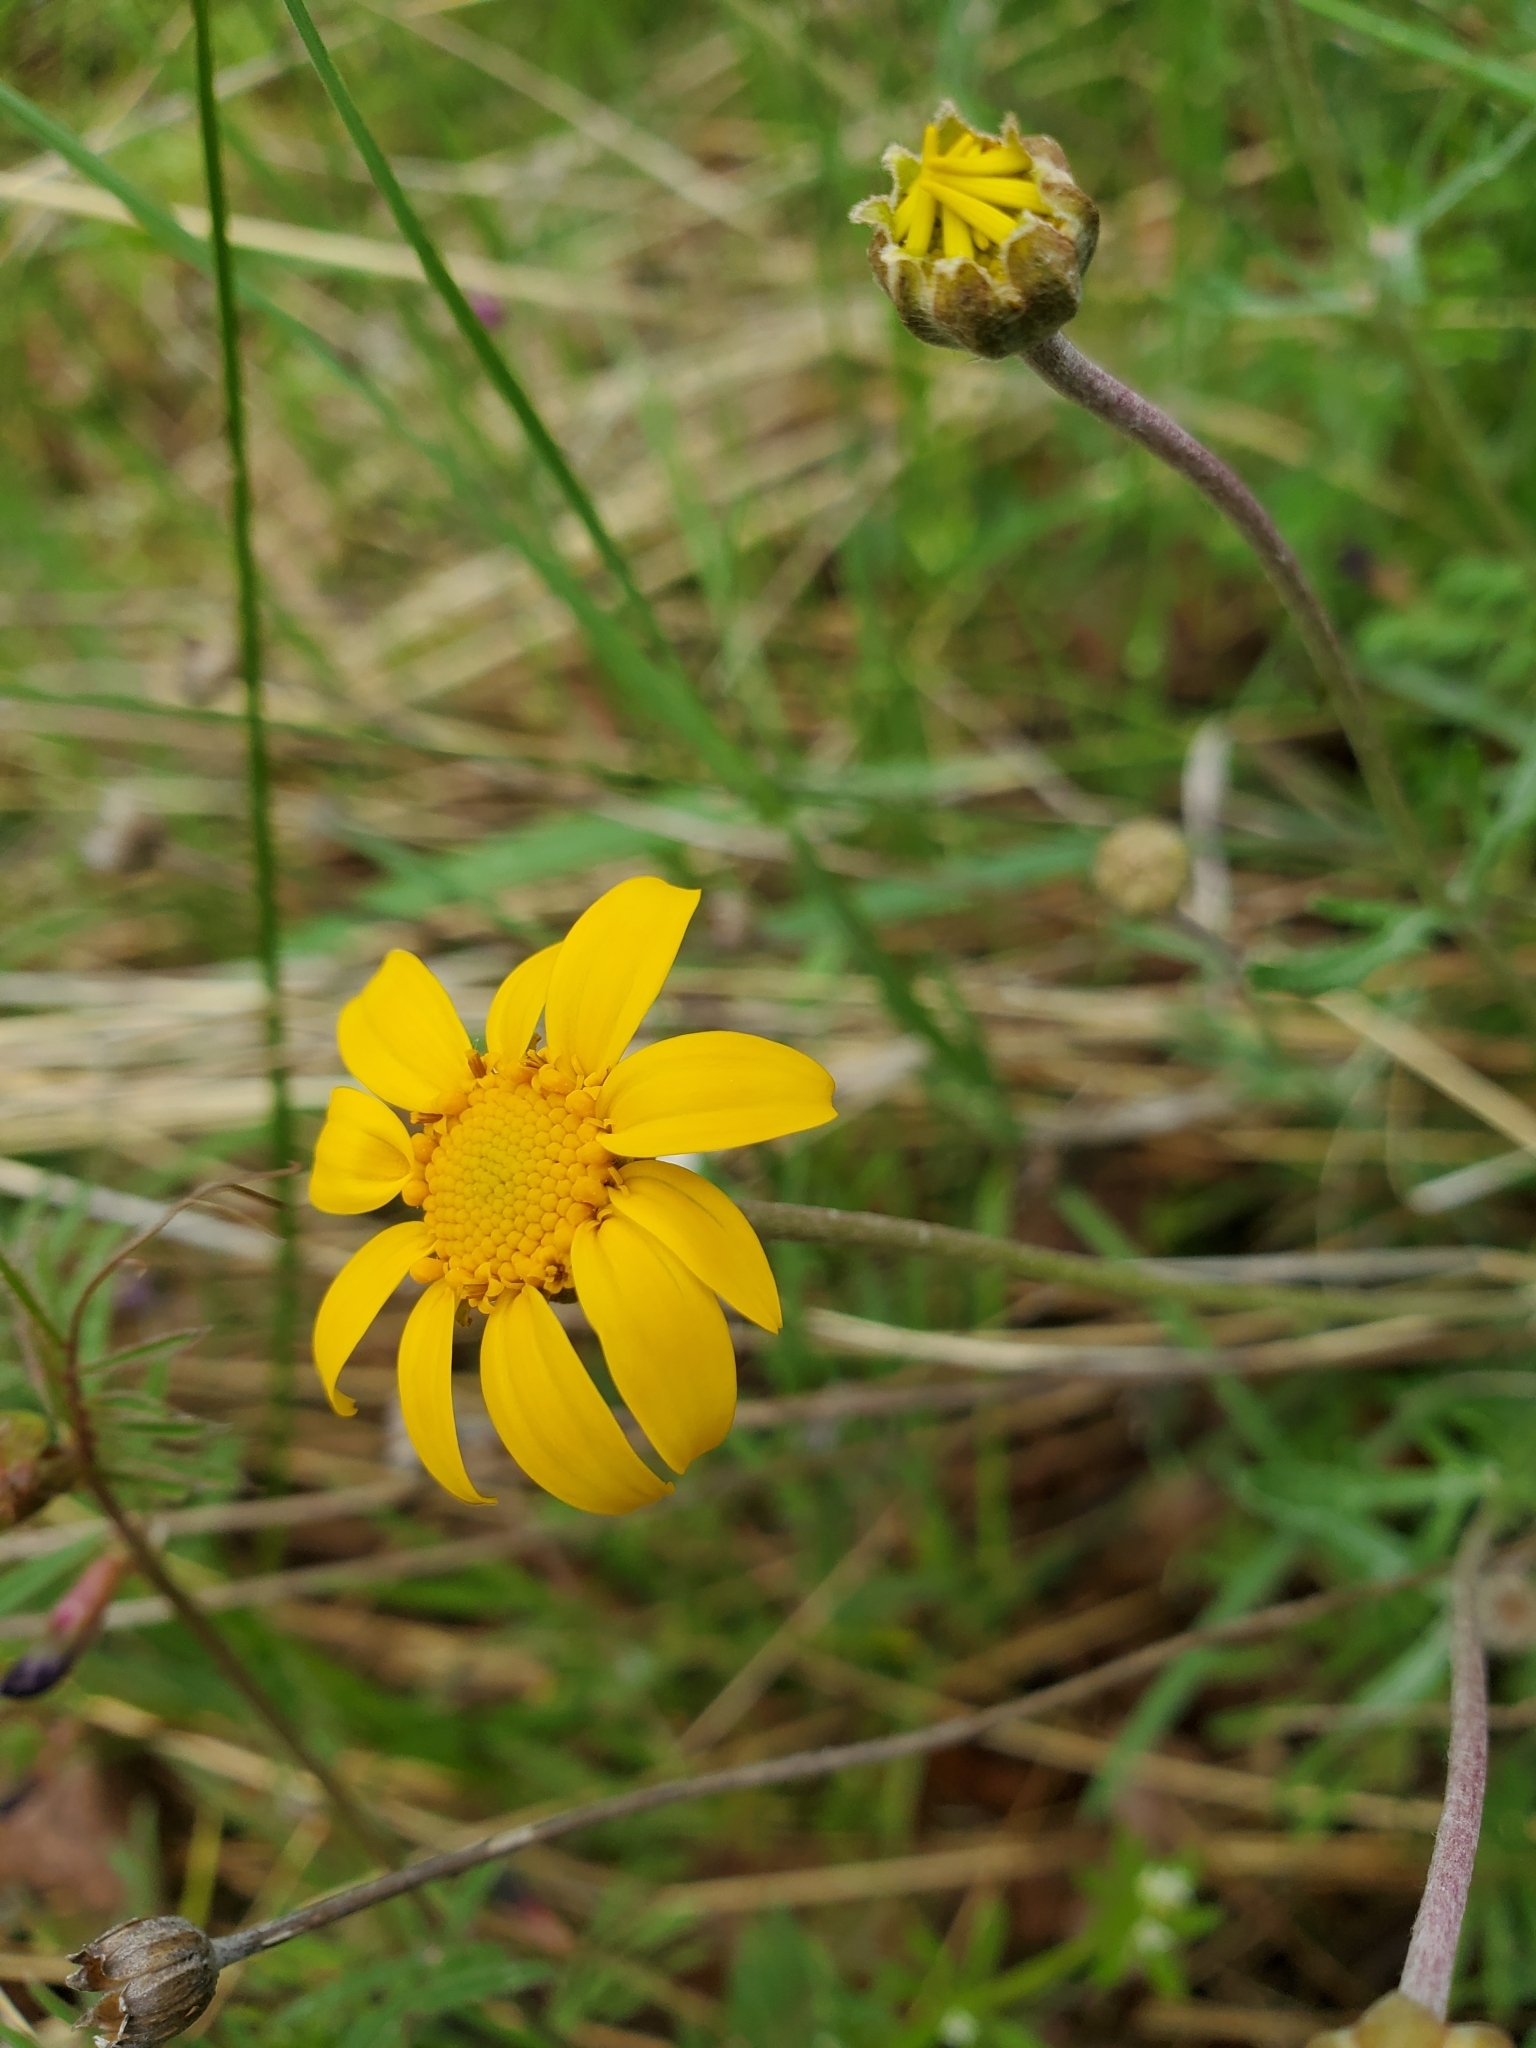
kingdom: Plantae
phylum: Tracheophyta
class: Magnoliopsida
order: Asterales
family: Asteraceae
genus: Eriophyllum
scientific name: Eriophyllum lanatum
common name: Common woolly-sunflower
